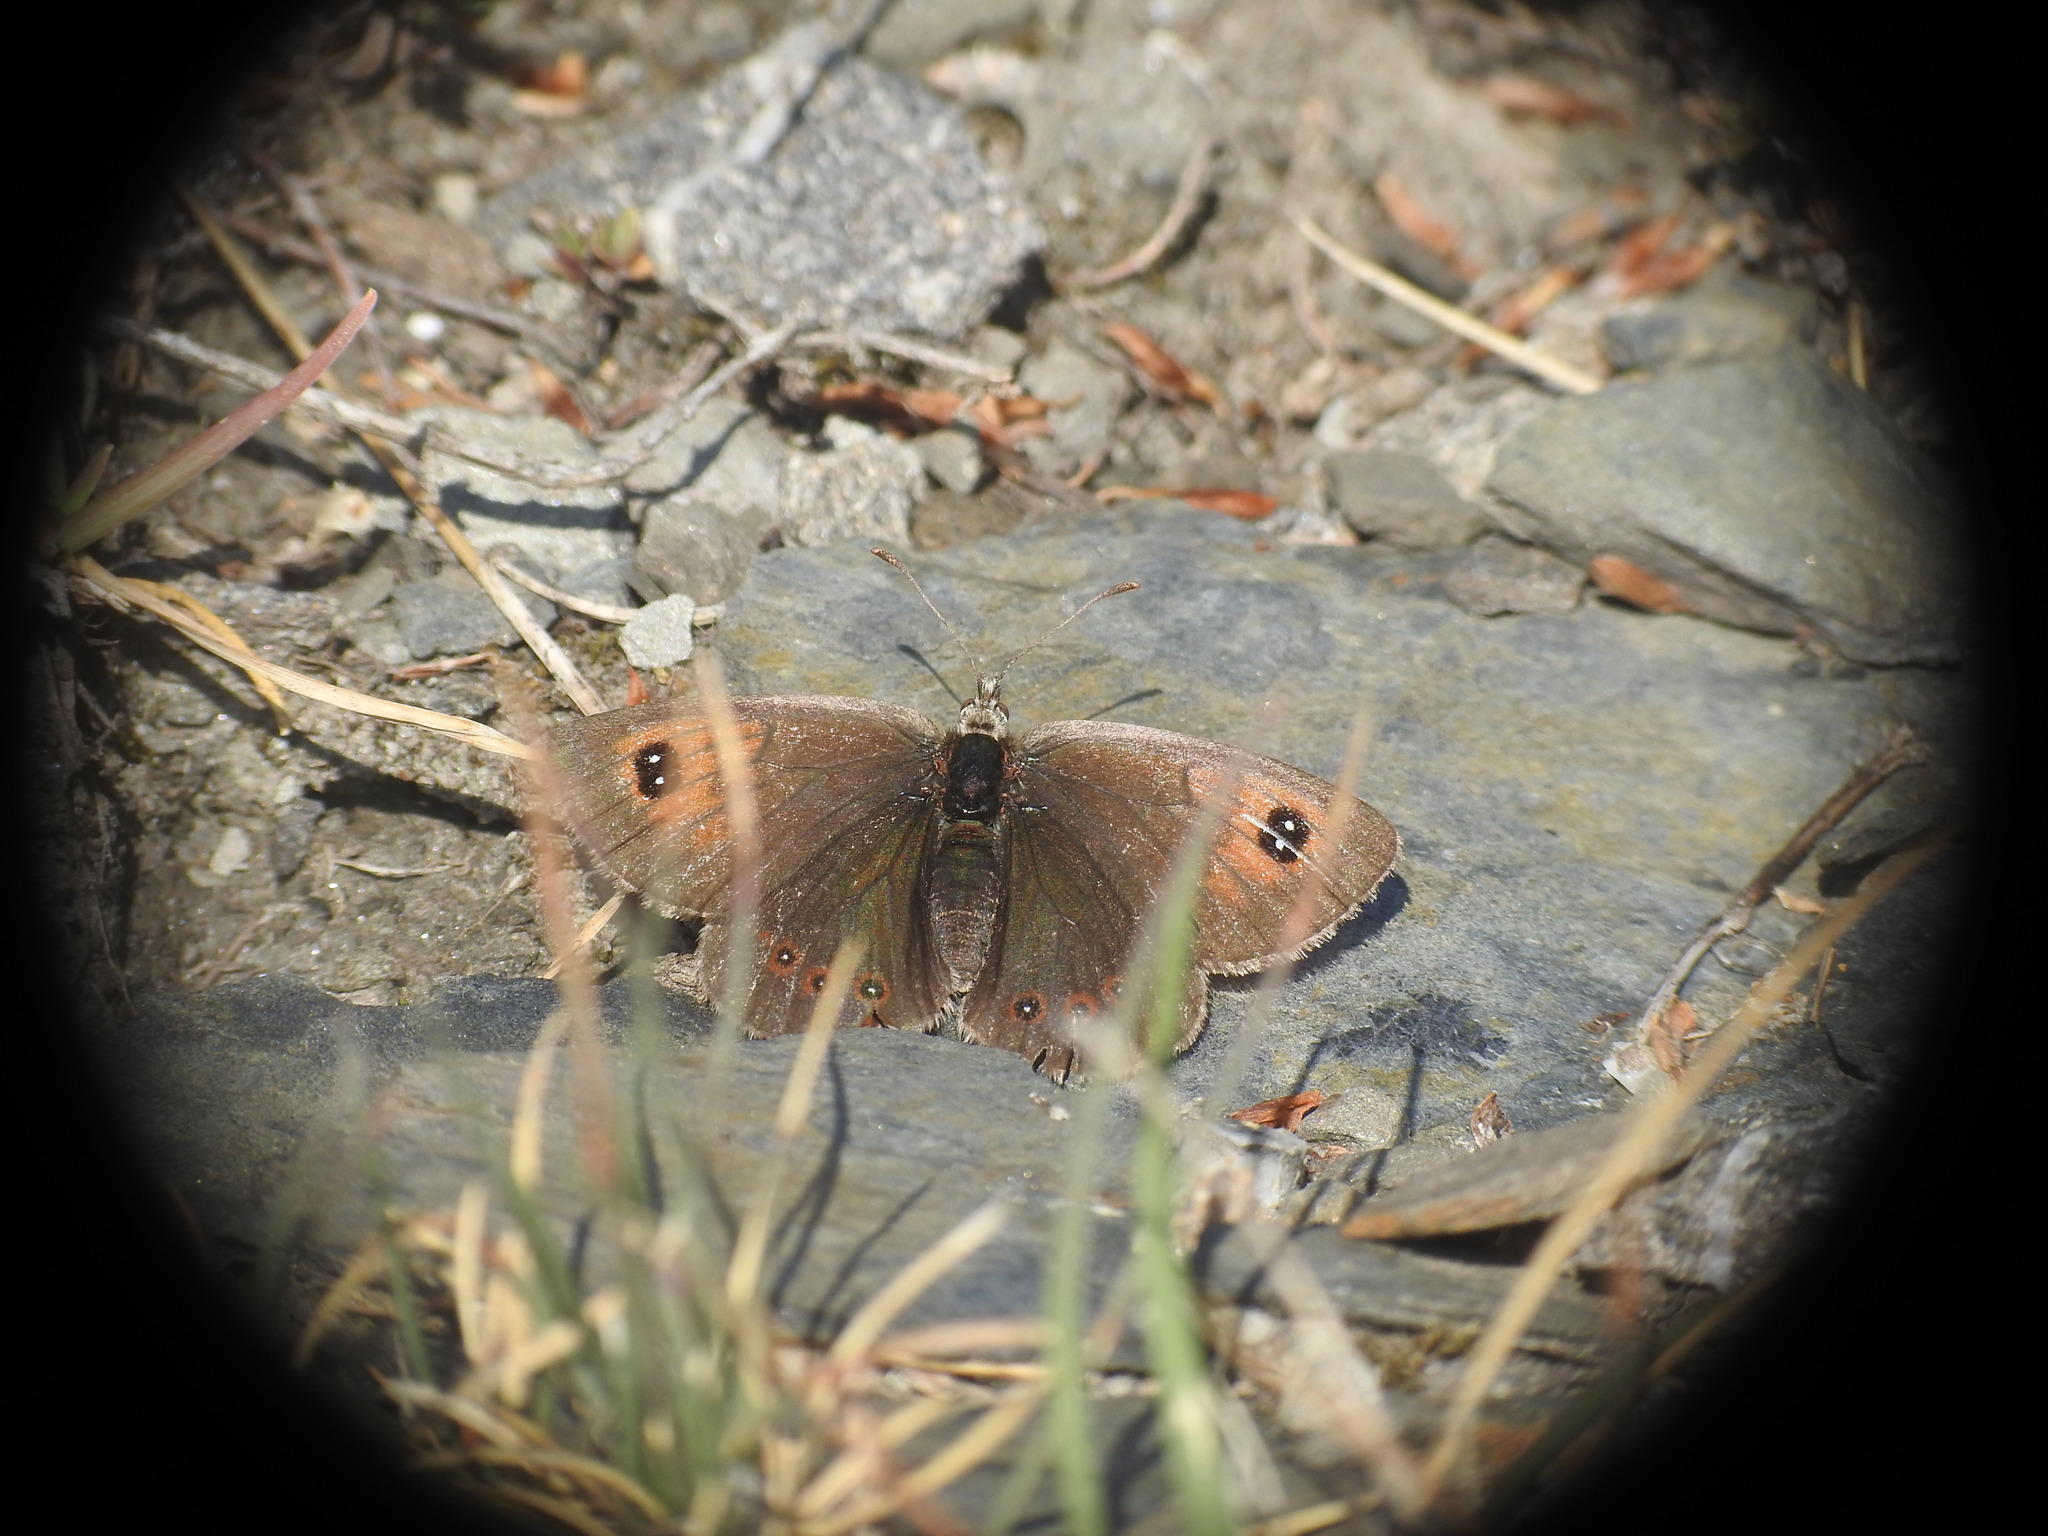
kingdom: Animalia
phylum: Arthropoda
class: Insecta
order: Lepidoptera
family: Nymphalidae
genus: Erebia
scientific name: Erebia cassioides
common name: Common brassy ringlet
